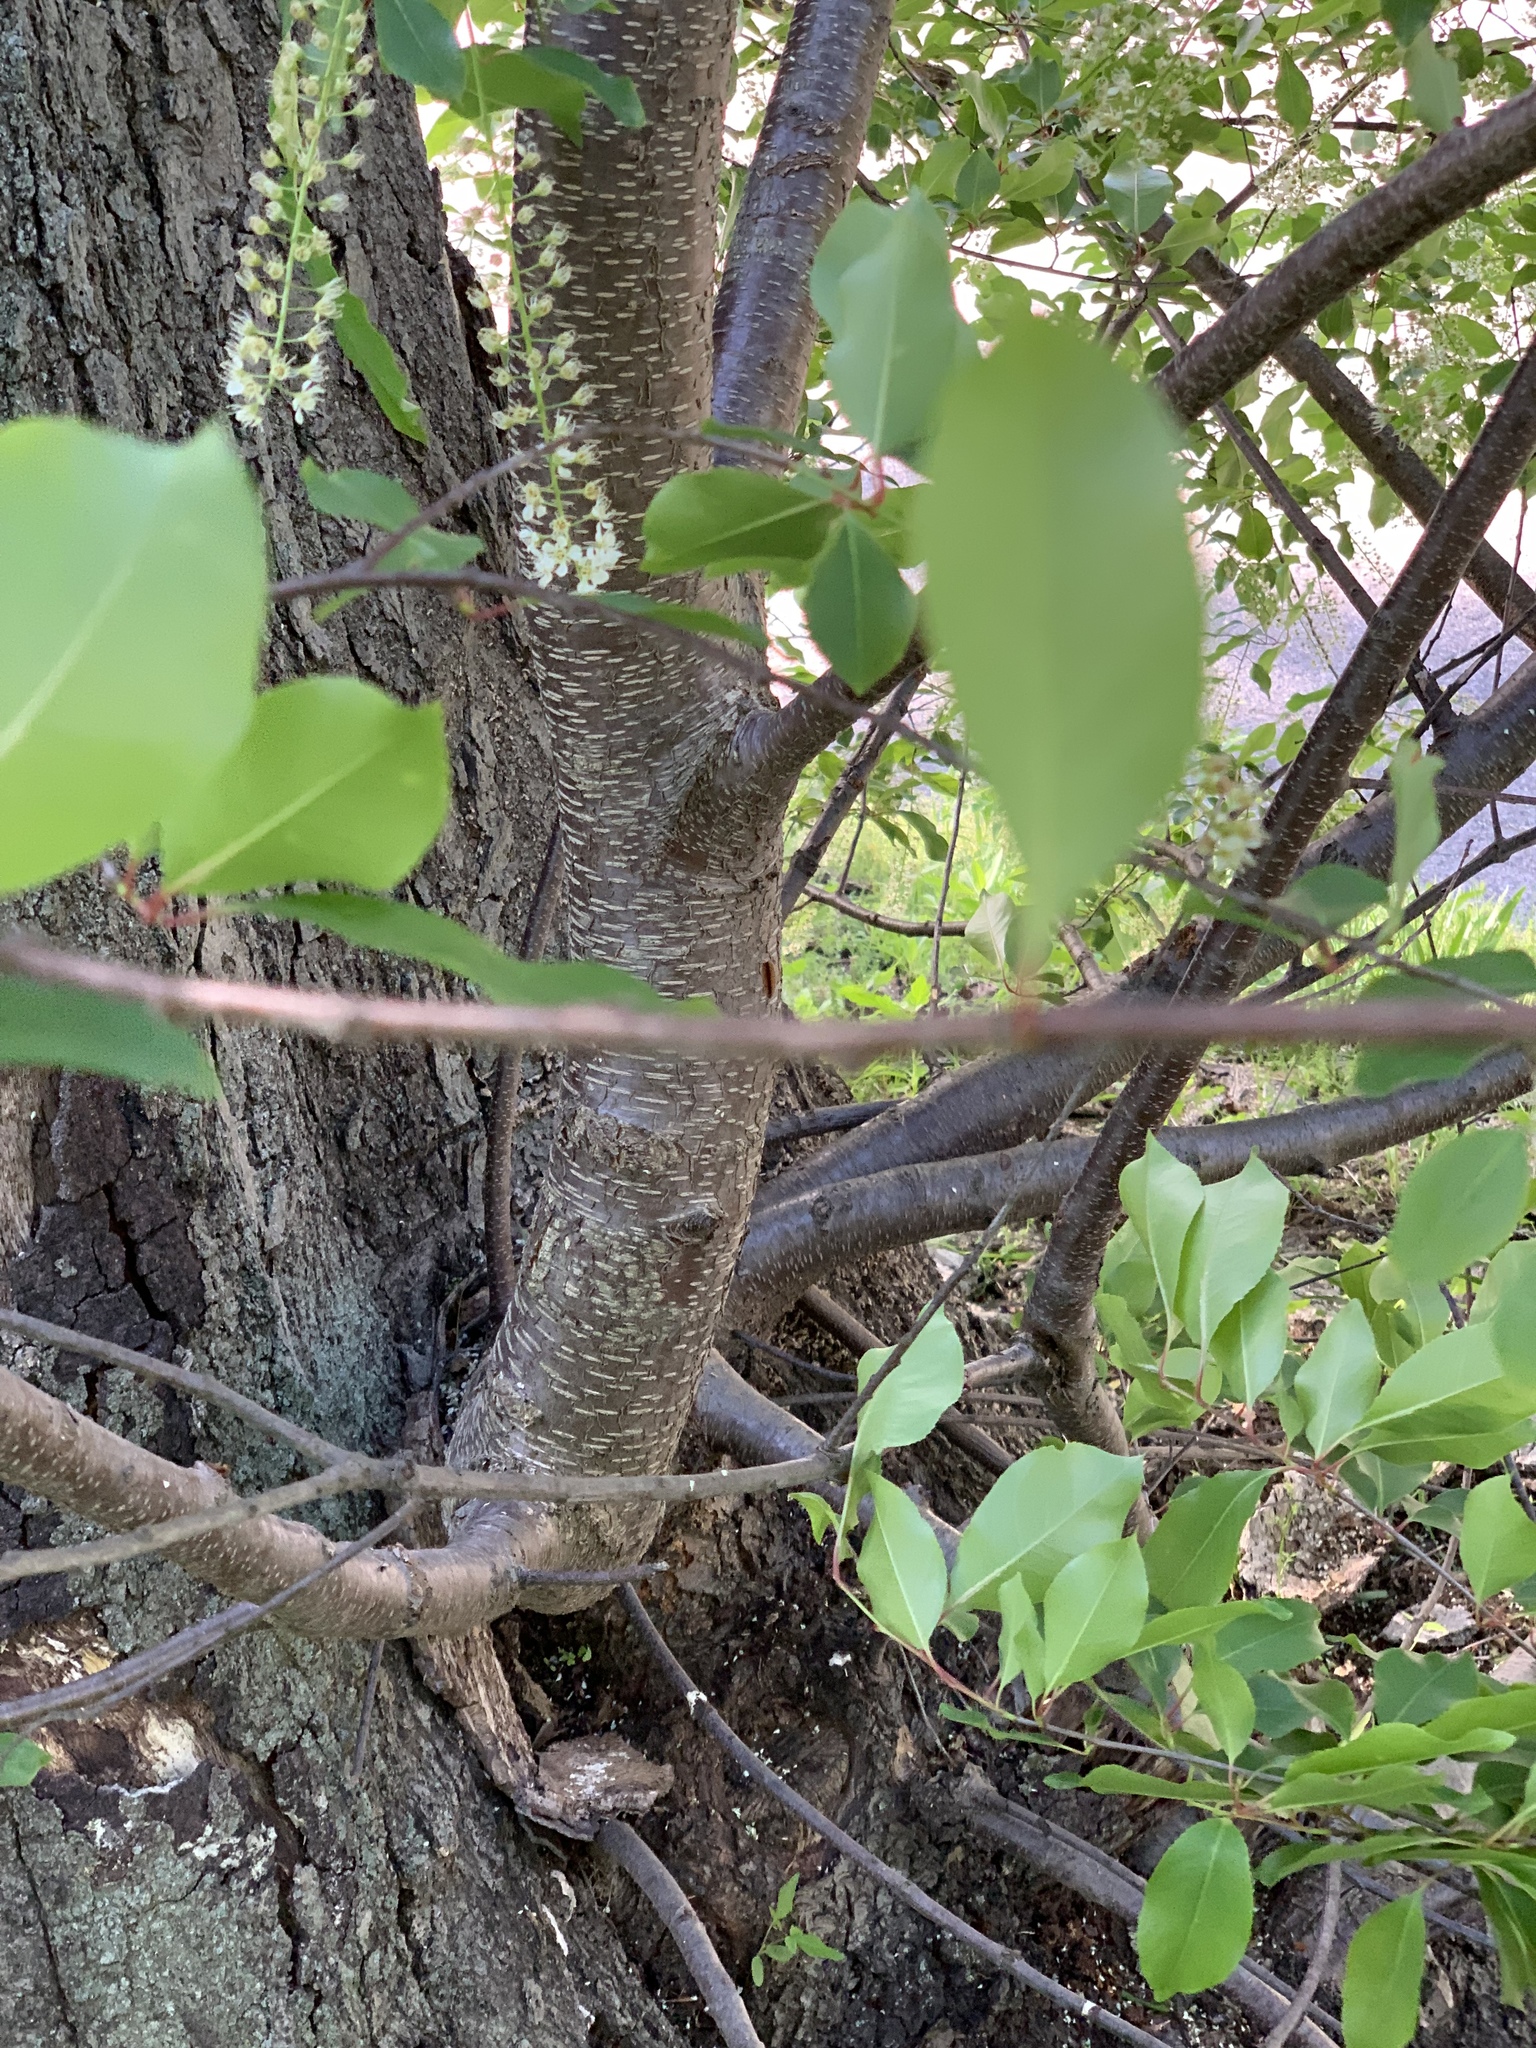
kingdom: Plantae
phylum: Tracheophyta
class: Magnoliopsida
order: Rosales
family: Rosaceae
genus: Prunus
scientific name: Prunus serotina
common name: Black cherry
